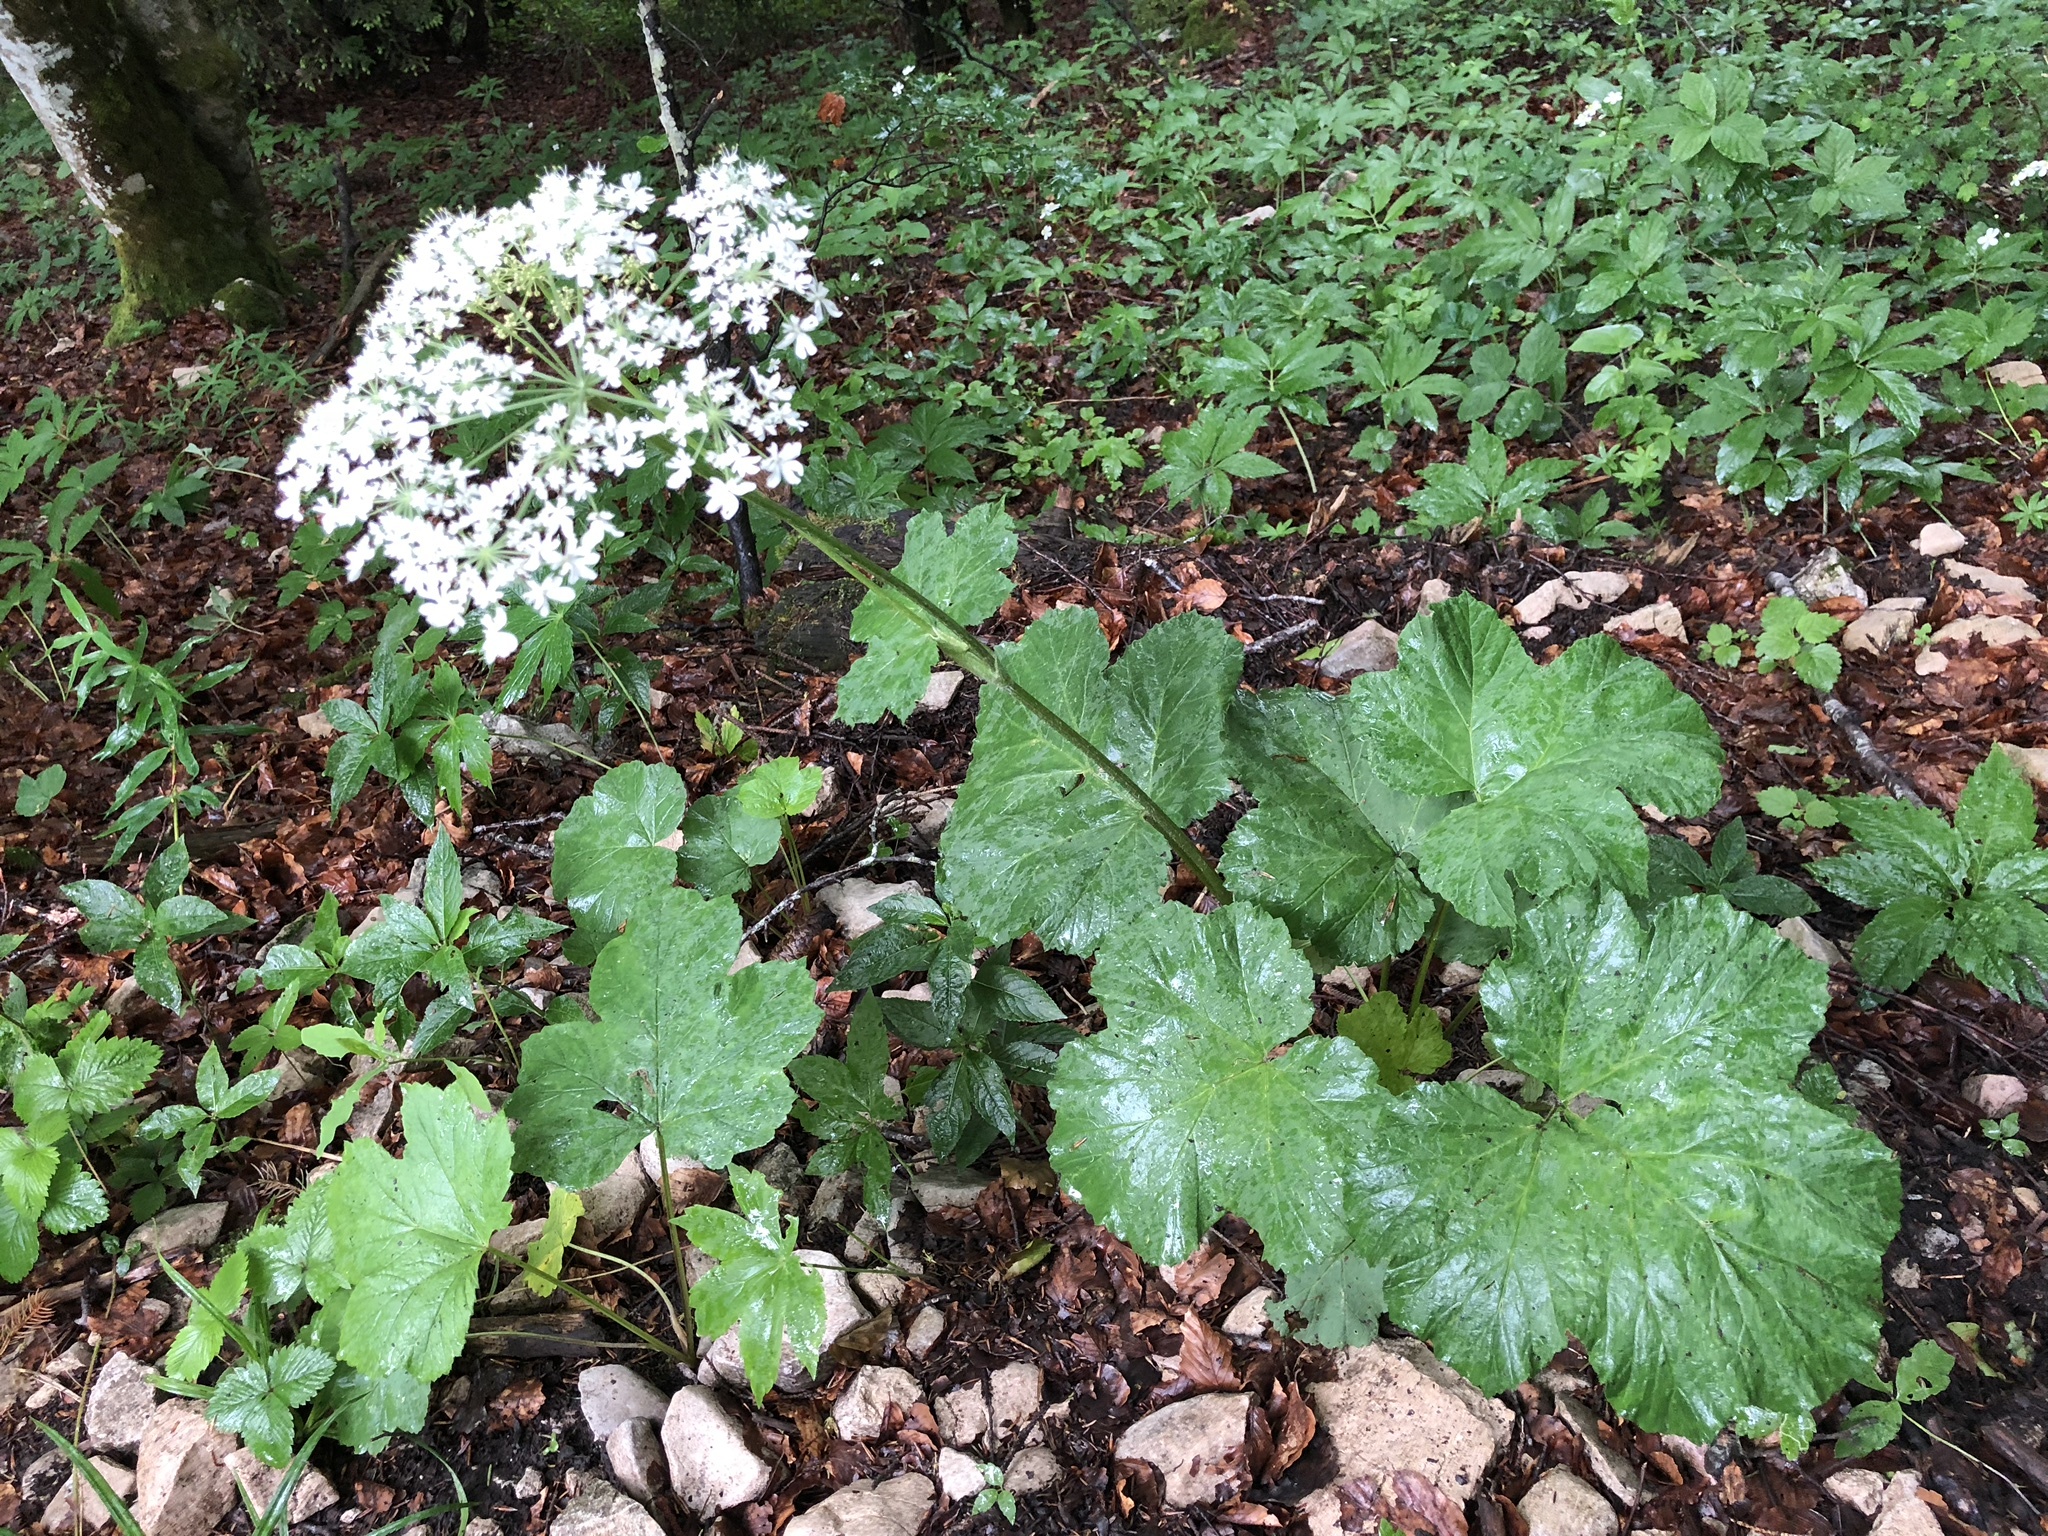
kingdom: Plantae
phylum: Tracheophyta
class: Magnoliopsida
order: Apiales
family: Apiaceae
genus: Heracleum
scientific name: Heracleum sphondylium
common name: Hogweed
